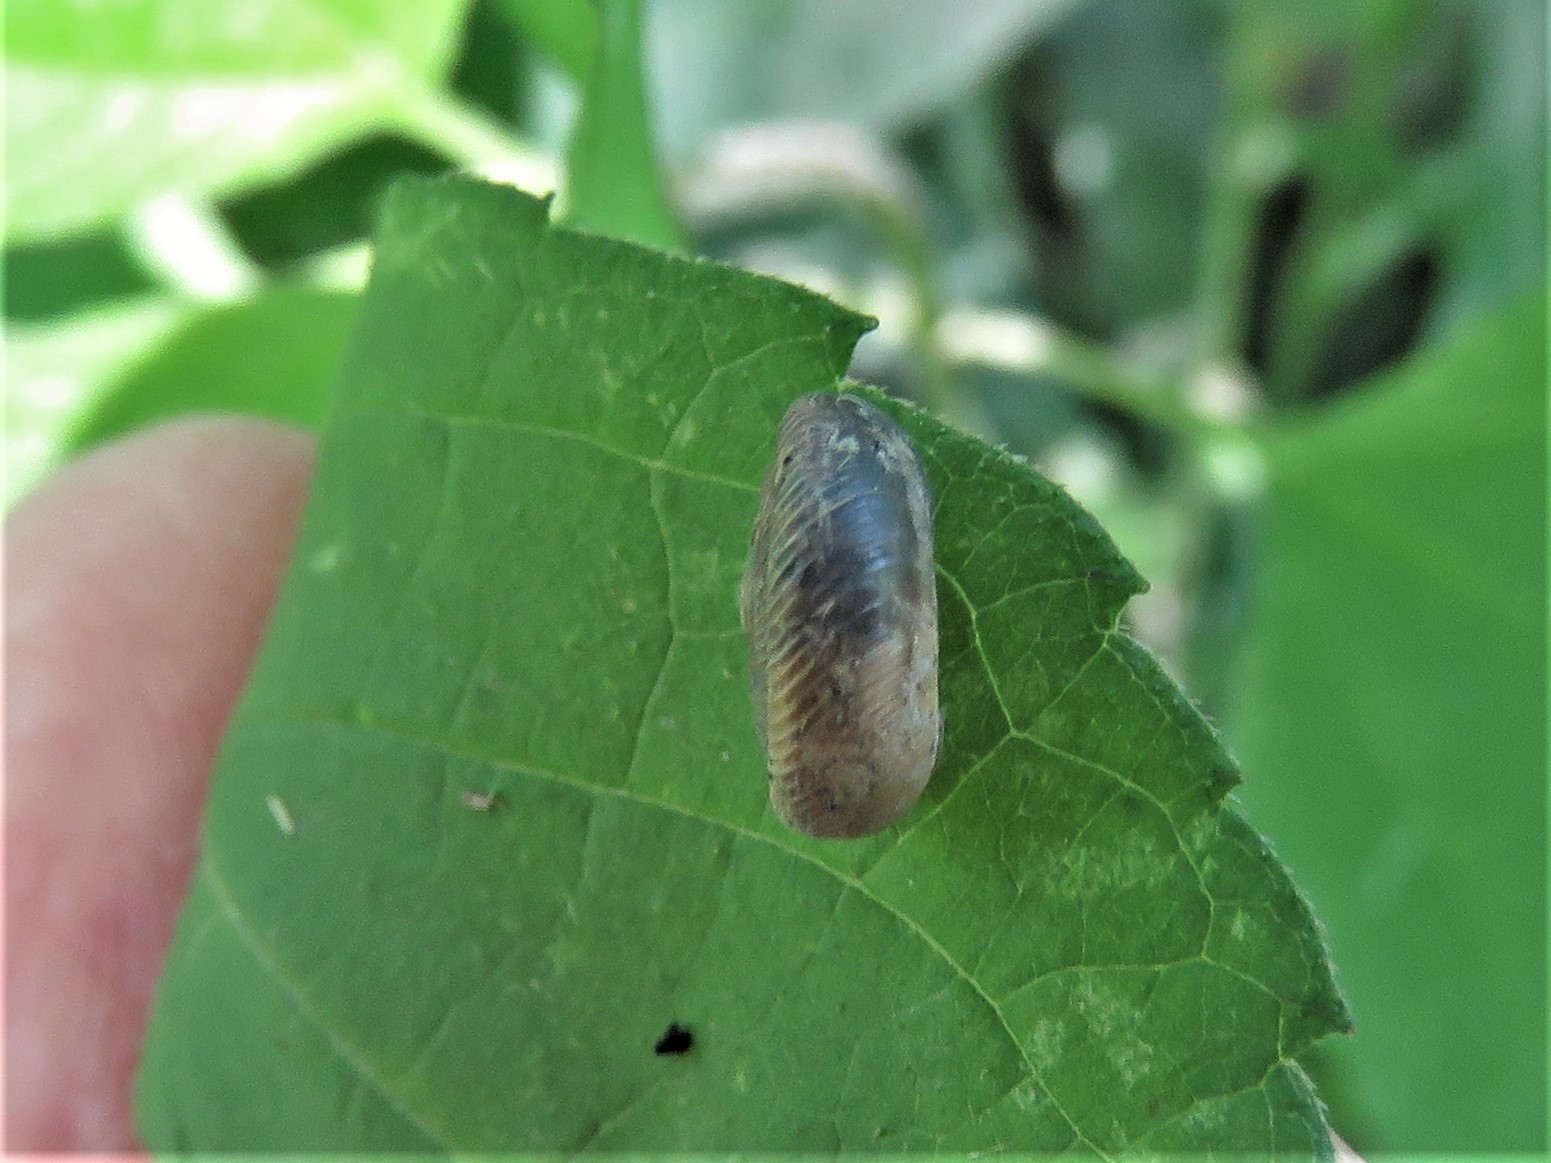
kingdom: Animalia
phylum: Mollusca
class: Gastropoda
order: Stylommatophora
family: Polygyridae
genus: Polygyra
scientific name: Polygyra cereolus
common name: Southern flatcone snail
